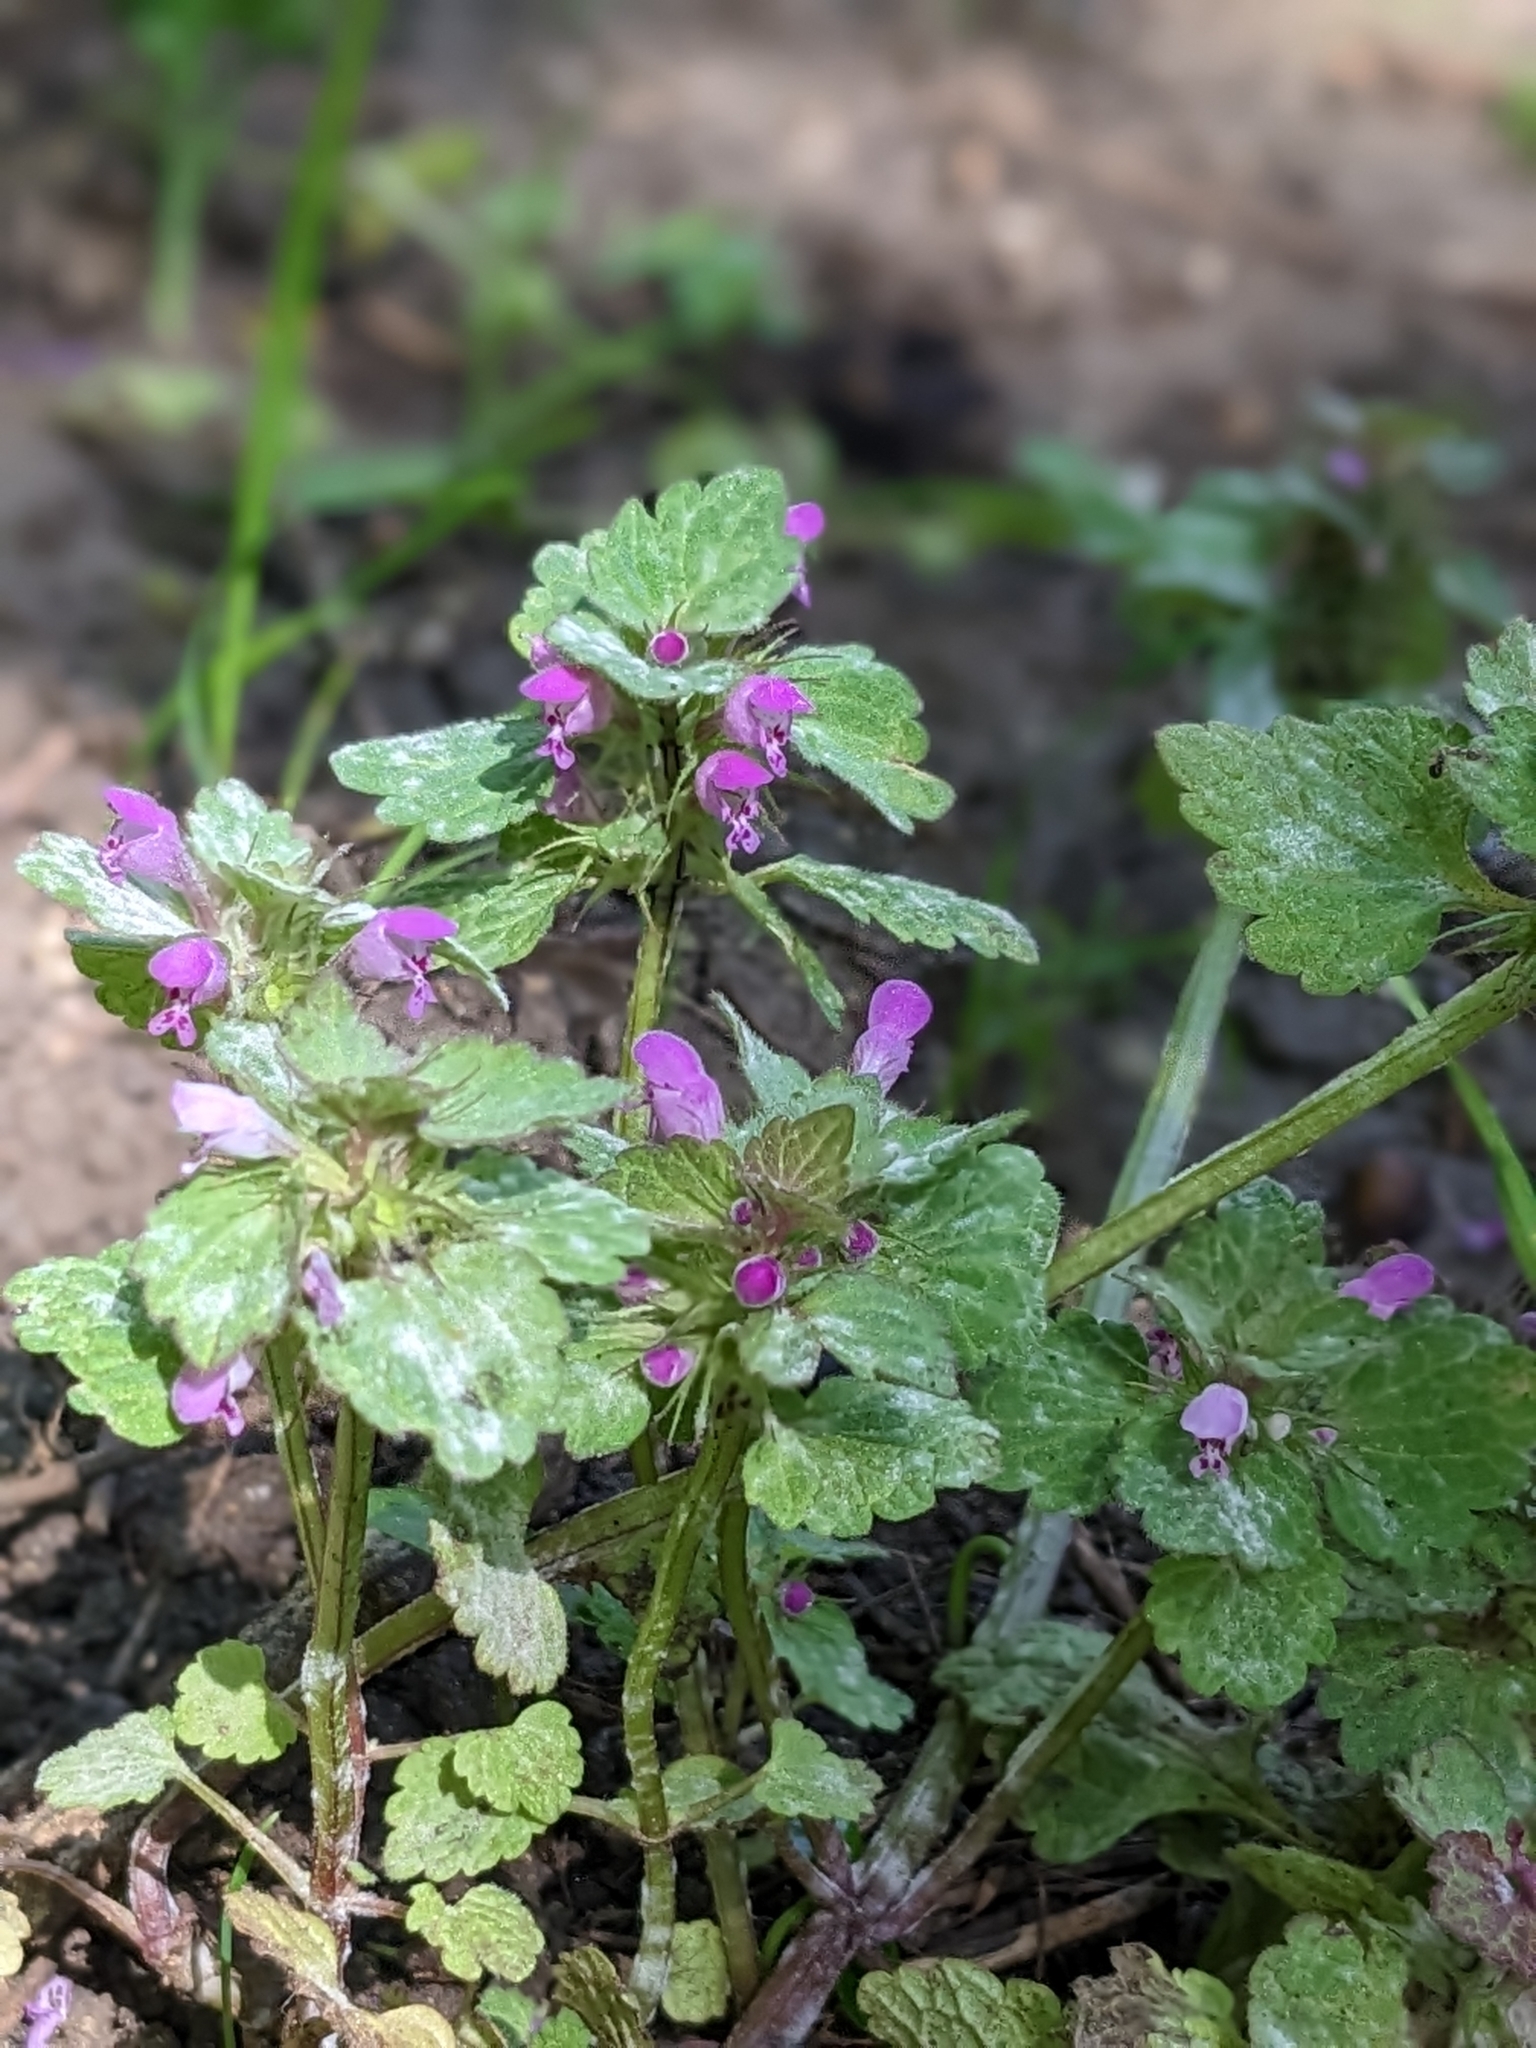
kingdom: Plantae
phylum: Tracheophyta
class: Magnoliopsida
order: Lamiales
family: Lamiaceae
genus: Lamium
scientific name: Lamium purpureum
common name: Red dead-nettle
